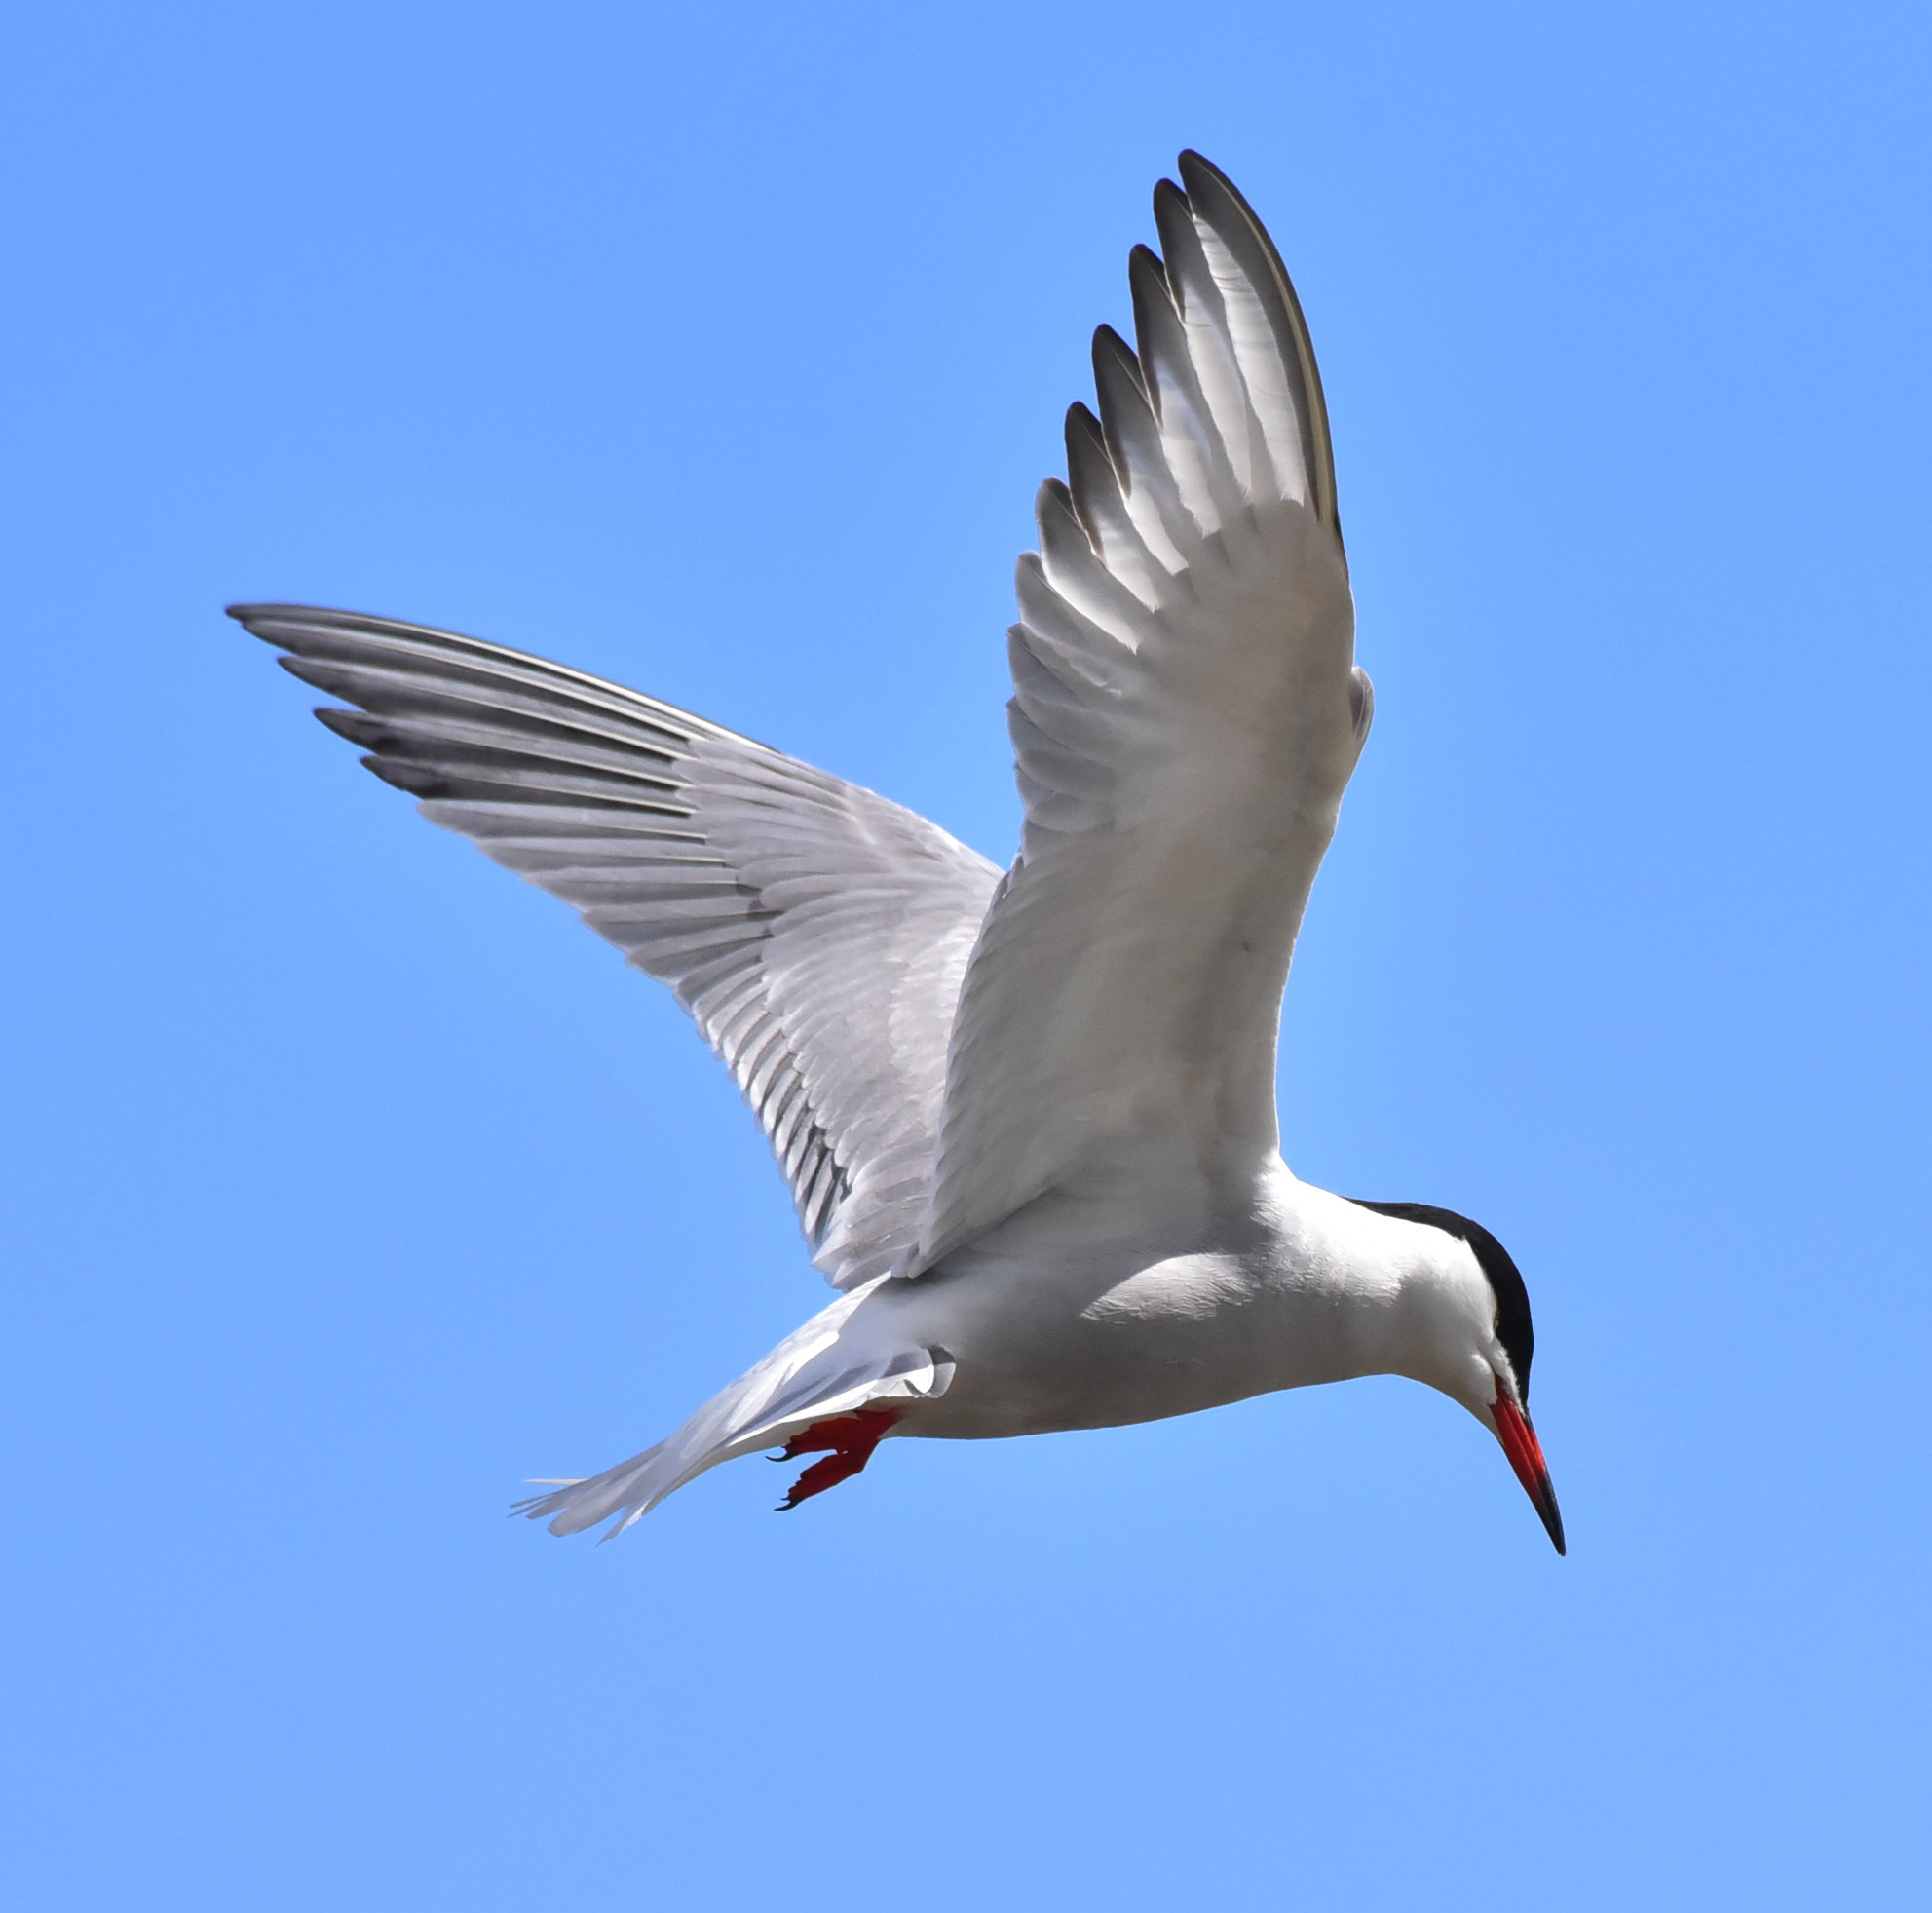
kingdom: Animalia
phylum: Chordata
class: Aves
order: Charadriiformes
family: Laridae
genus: Sterna
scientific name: Sterna hirundo
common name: Common tern
